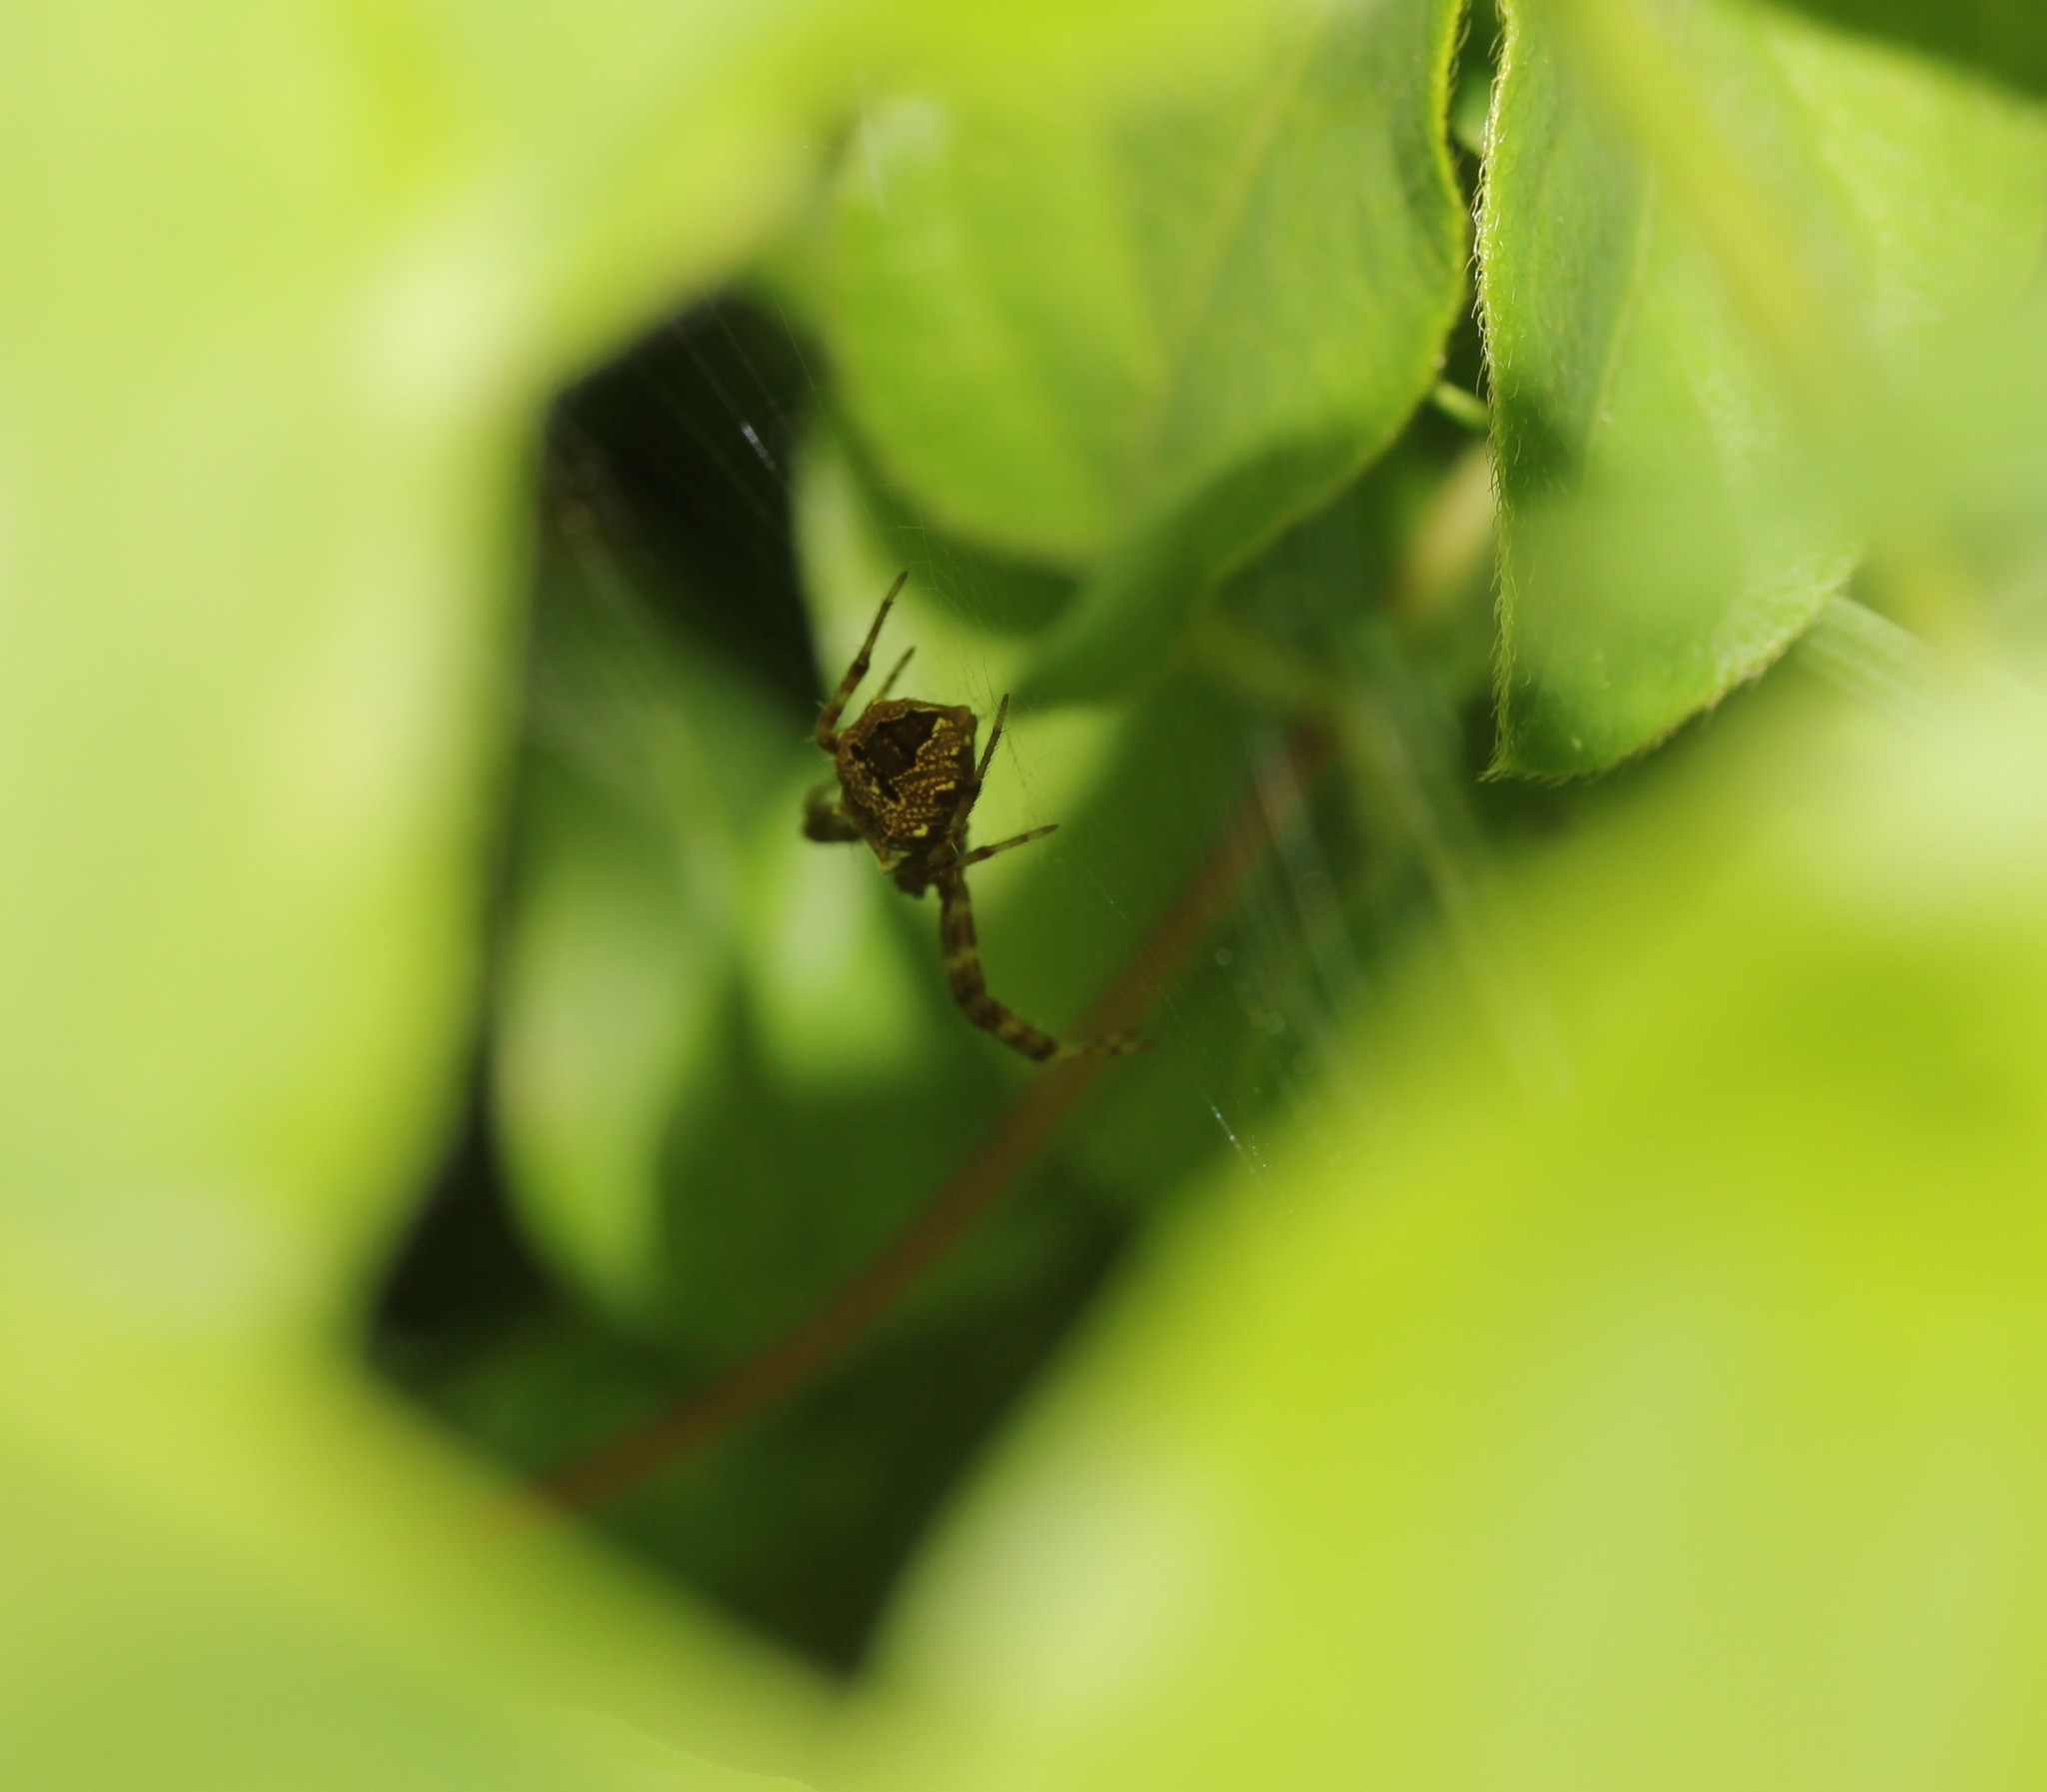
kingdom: Animalia
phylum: Arthropoda
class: Arachnida
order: Araneae
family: Araneidae
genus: Gea
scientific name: Gea heptagon
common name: Orb weavers
